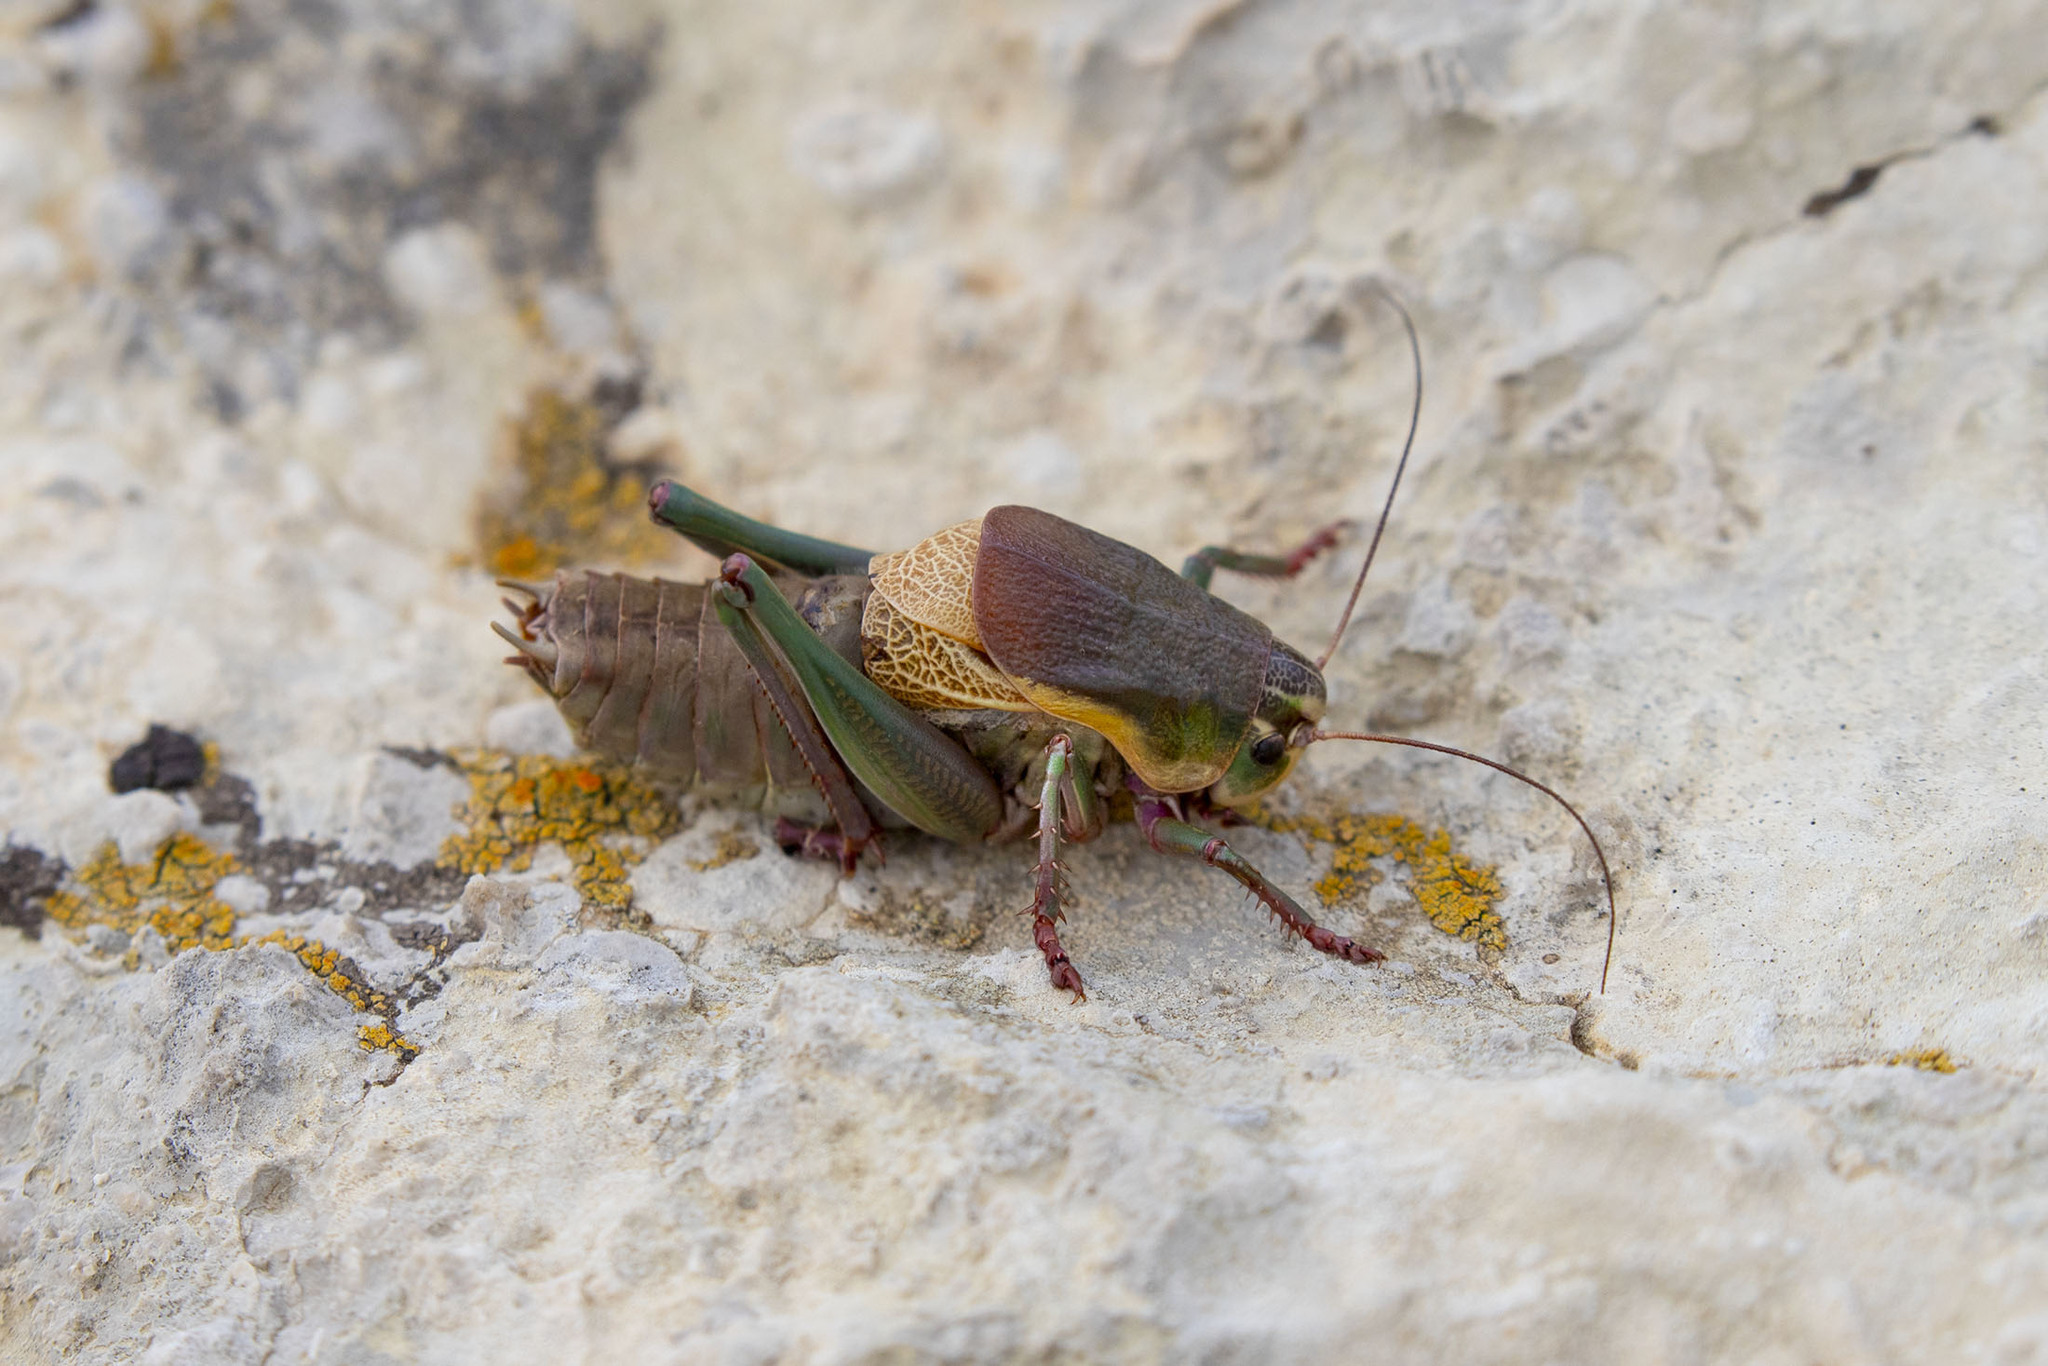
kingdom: Animalia
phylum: Arthropoda
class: Insecta
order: Orthoptera
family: Tettigoniidae
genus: Psorodonotus
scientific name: Psorodonotus venosus
